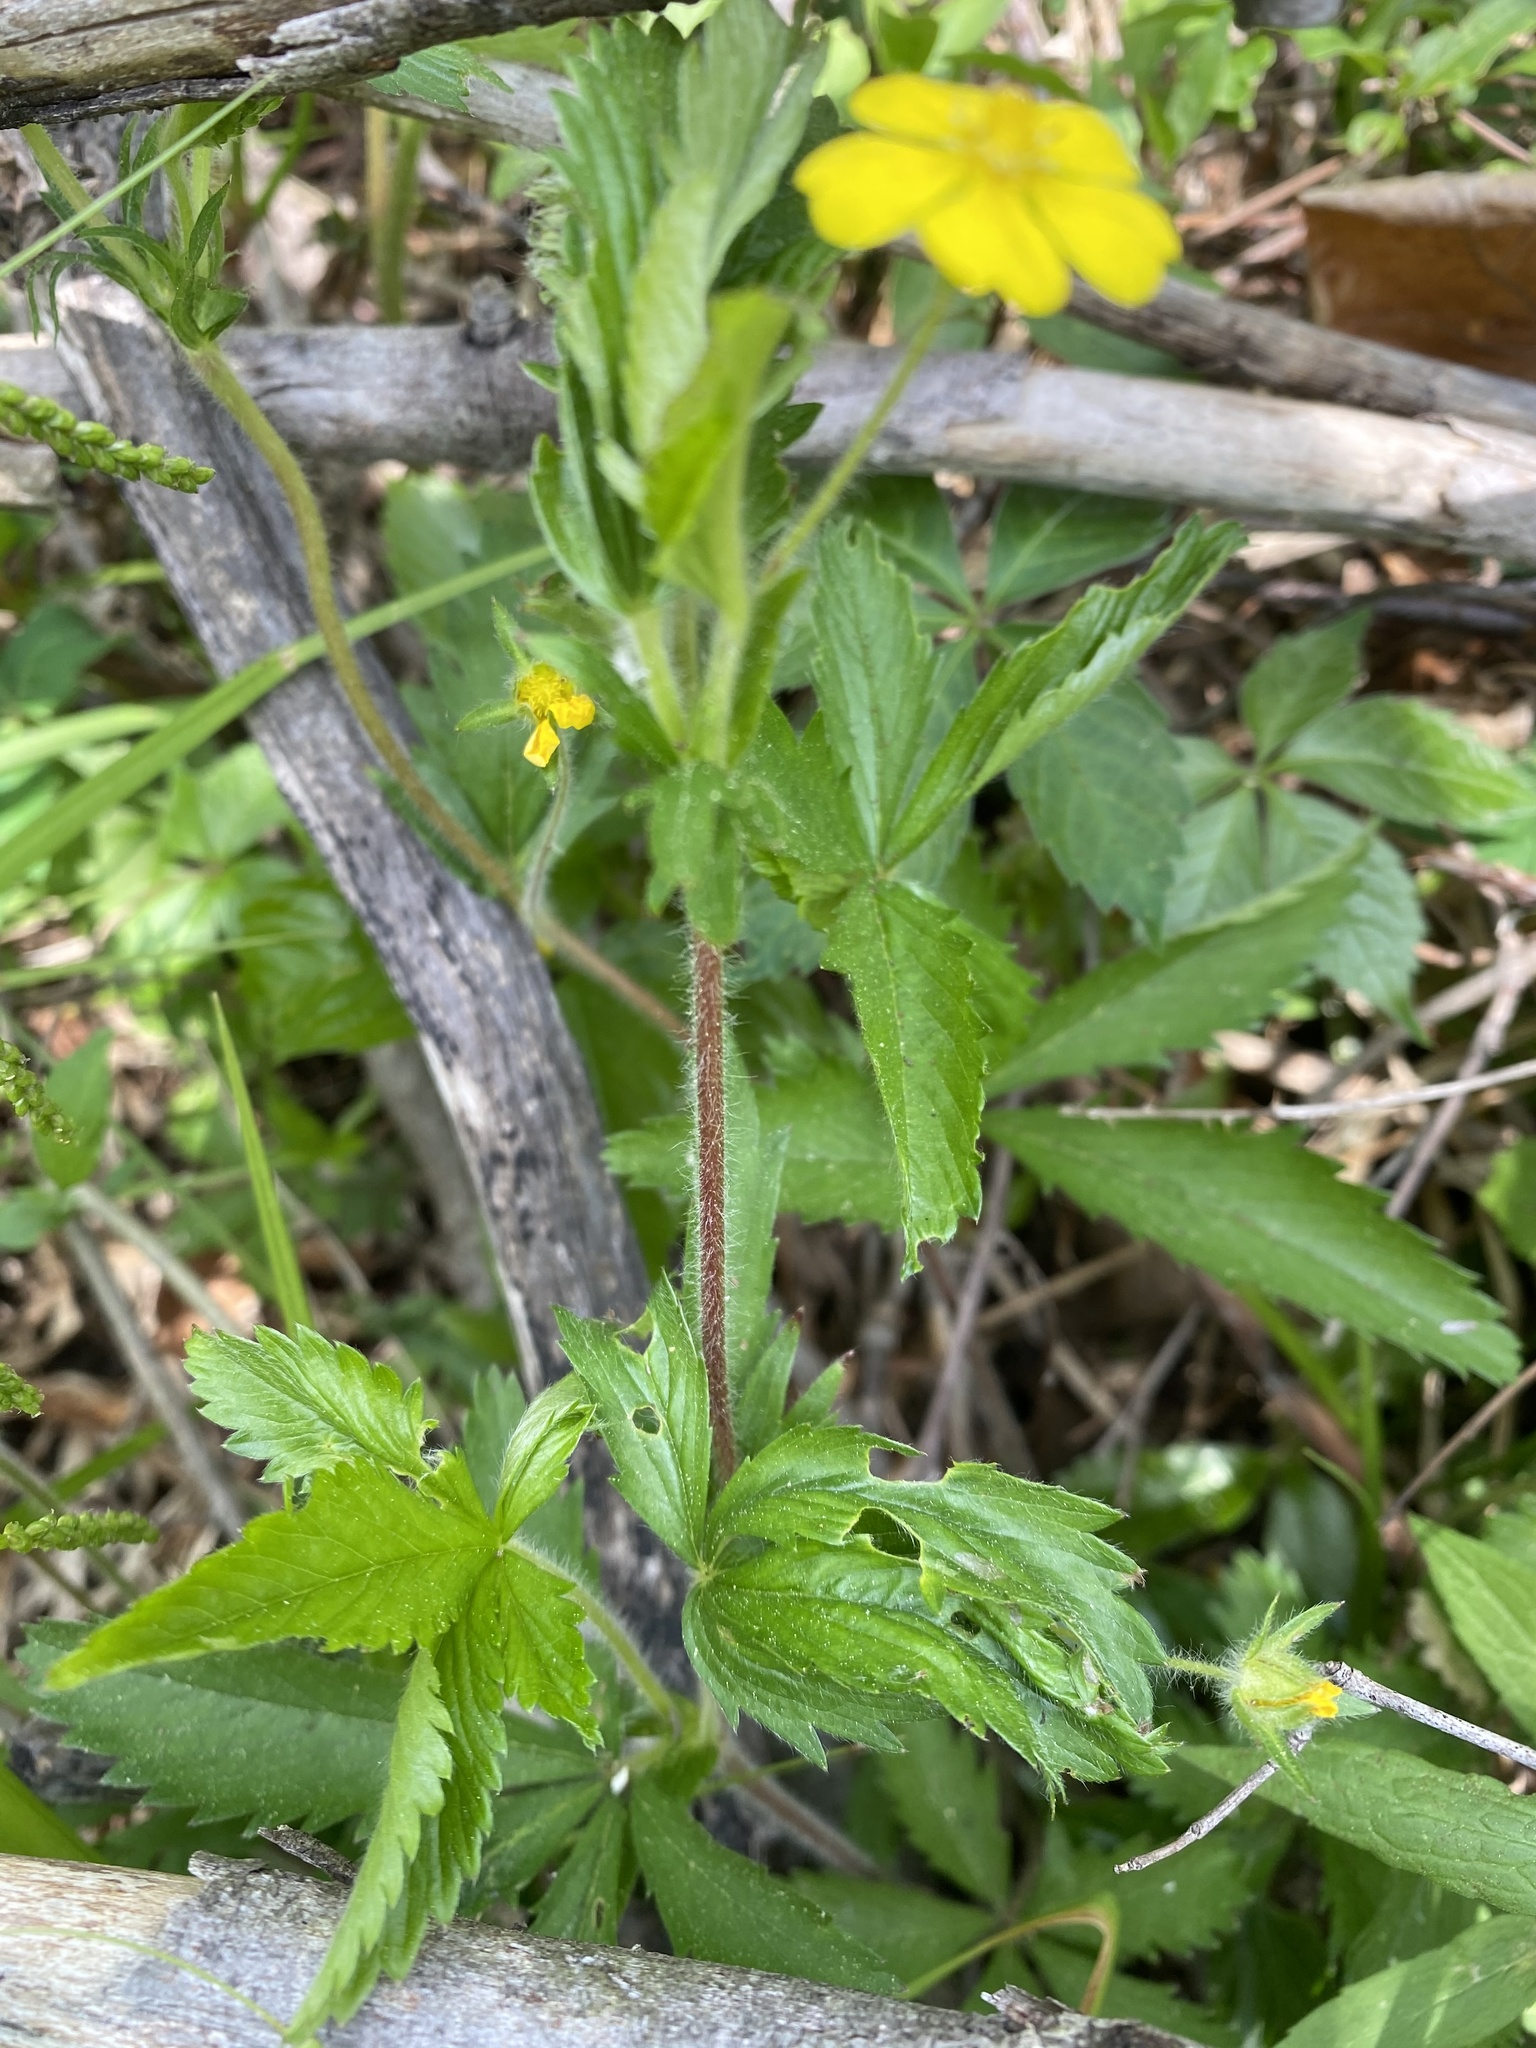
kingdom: Plantae
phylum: Tracheophyta
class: Magnoliopsida
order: Rosales
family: Rosaceae
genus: Potentilla
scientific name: Potentilla simplex
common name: Old field cinquefoil
